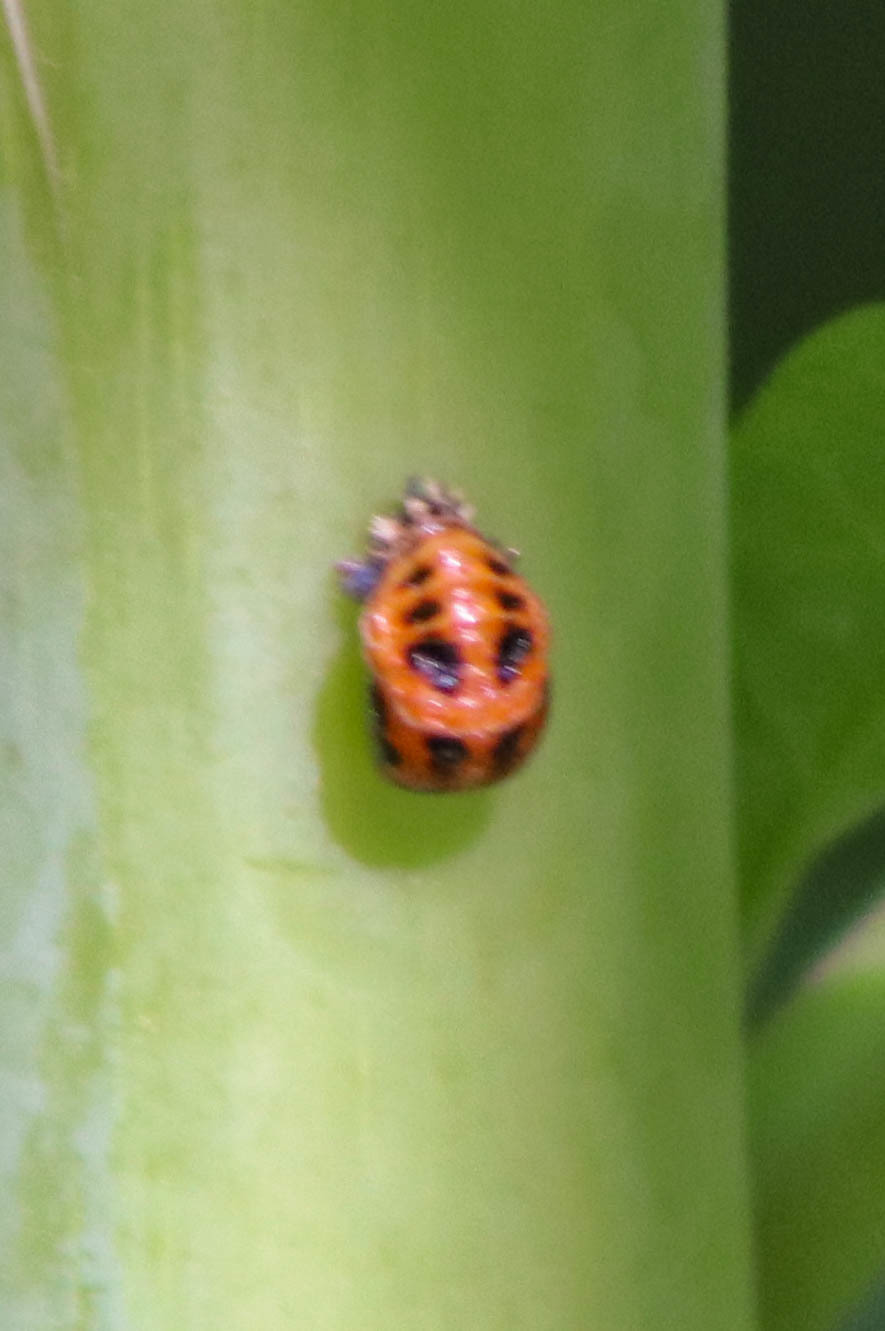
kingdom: Animalia
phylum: Arthropoda
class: Insecta
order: Coleoptera
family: Coccinellidae
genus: Harmonia
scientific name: Harmonia axyridis
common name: Harlequin ladybird
